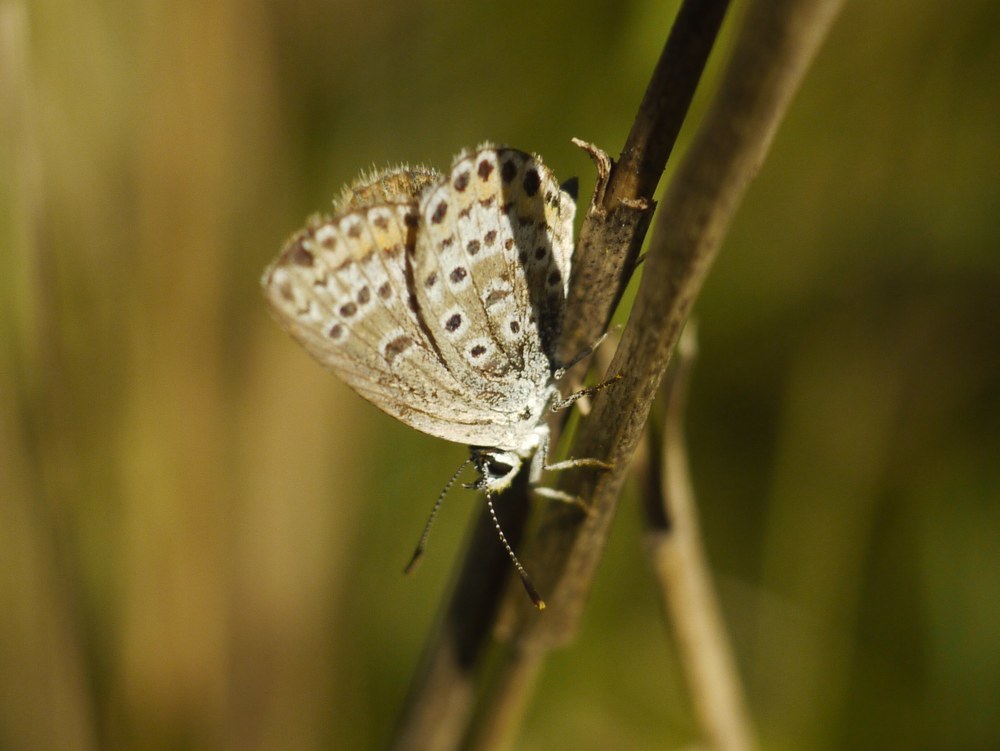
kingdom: Animalia
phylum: Arthropoda
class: Insecta
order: Lepidoptera
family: Lycaenidae
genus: Plebejus
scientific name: Plebejus argus
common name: Silver-studded blue
